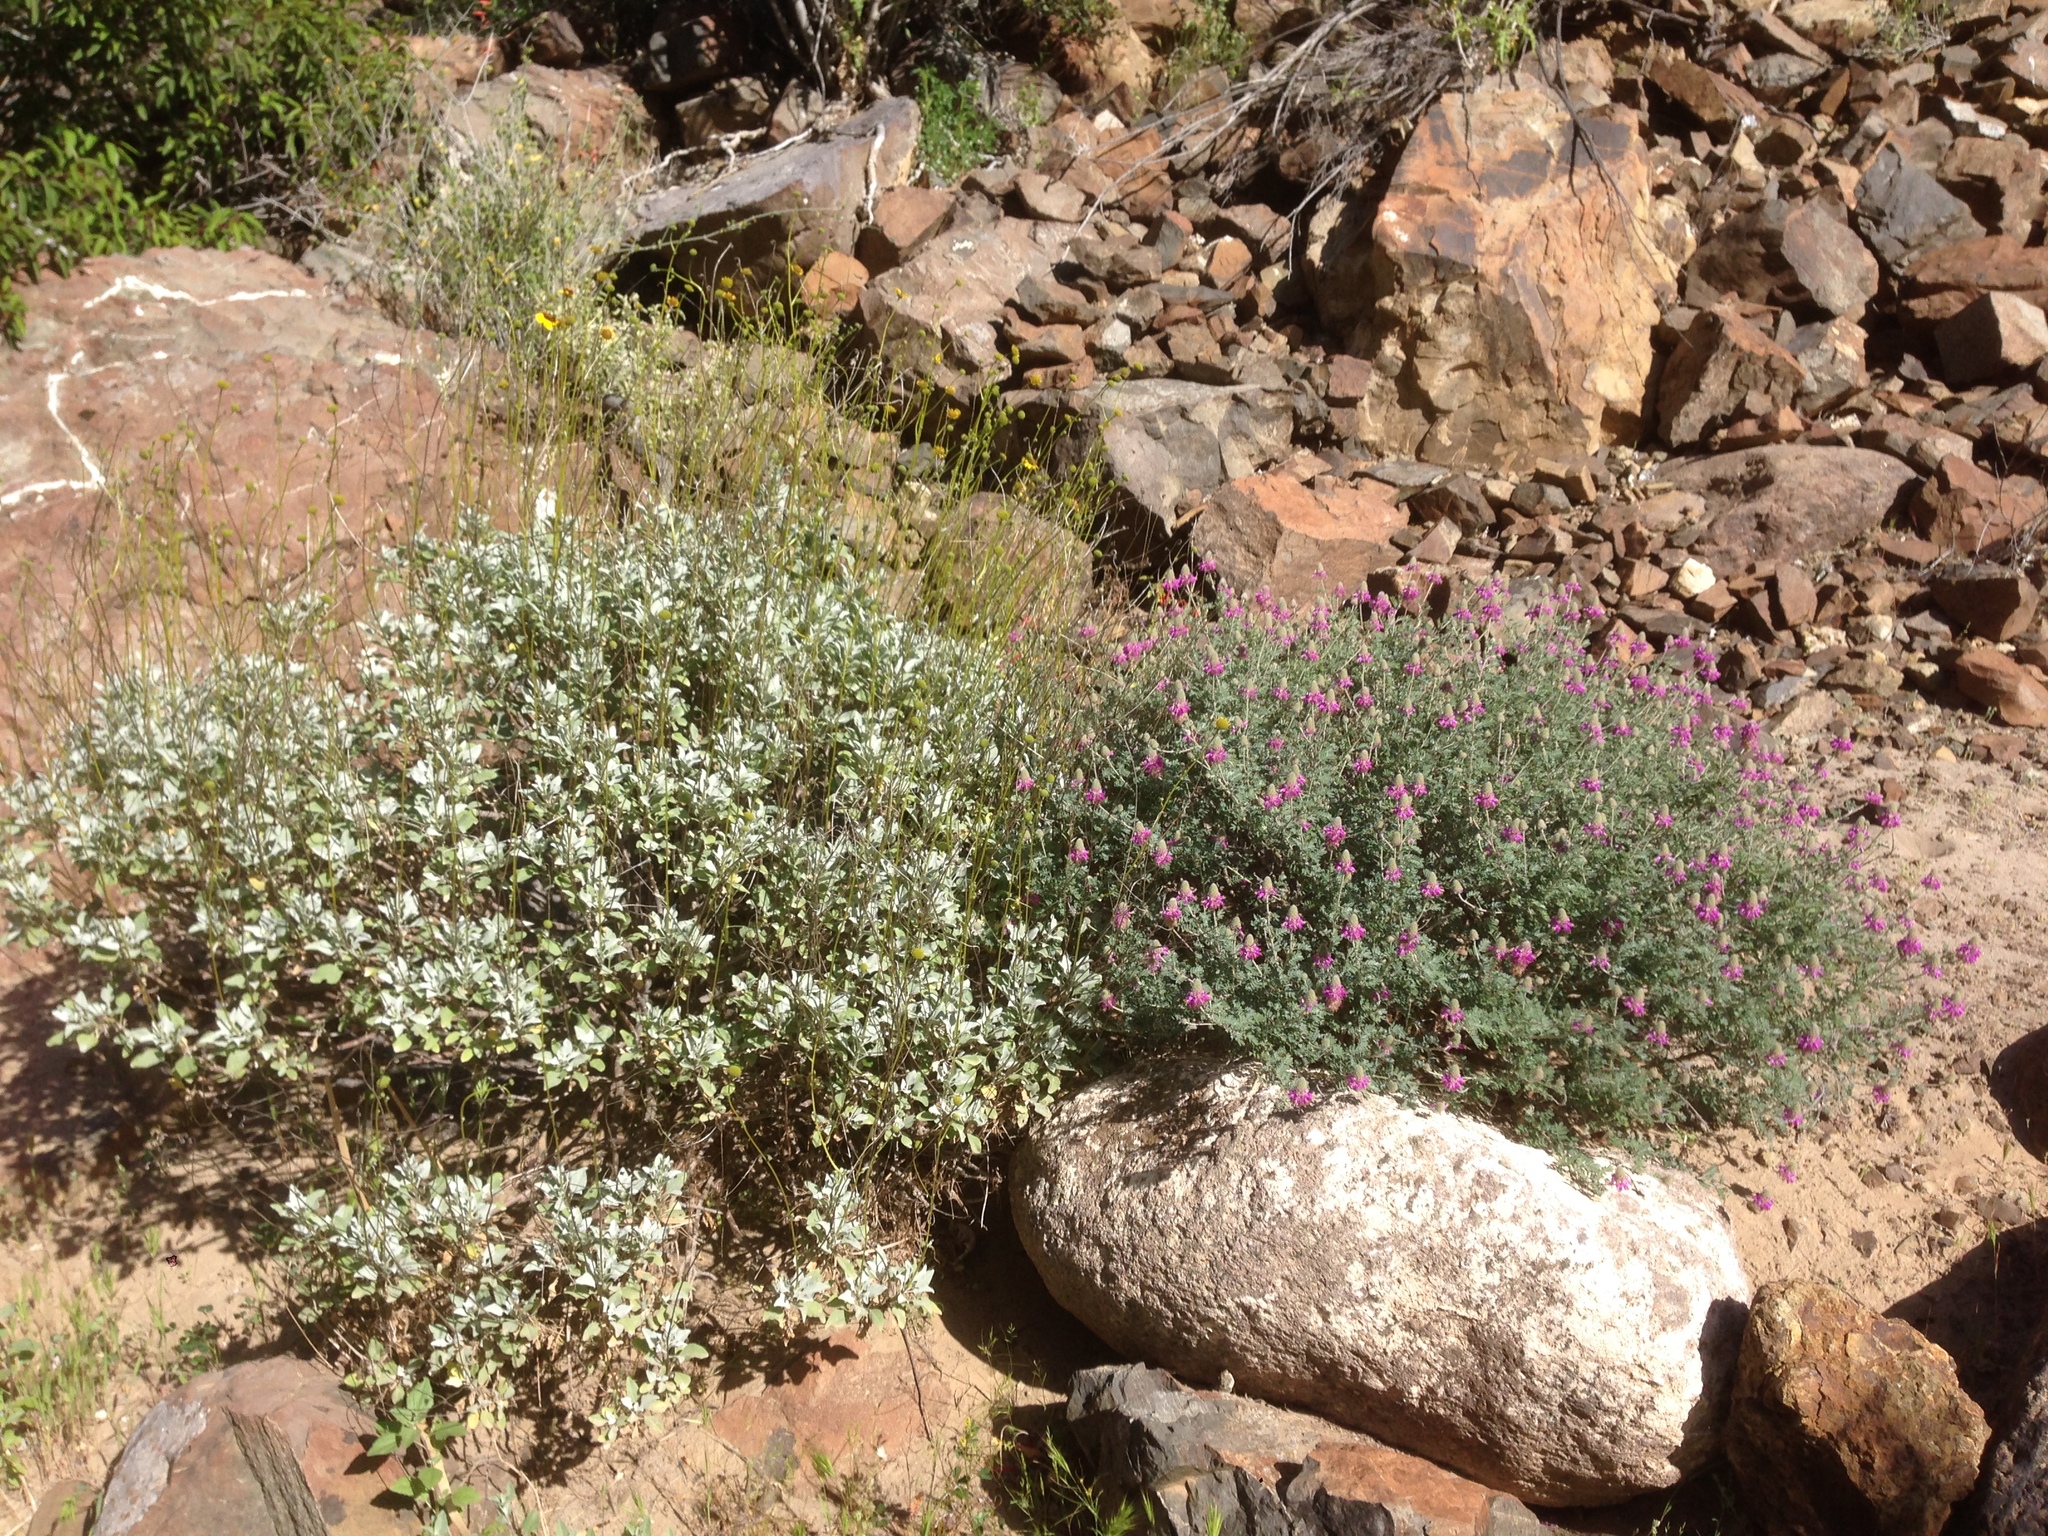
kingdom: Plantae
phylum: Tracheophyta
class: Magnoliopsida
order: Asterales
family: Asteraceae
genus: Encelia
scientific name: Encelia farinosa
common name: Brittlebush
